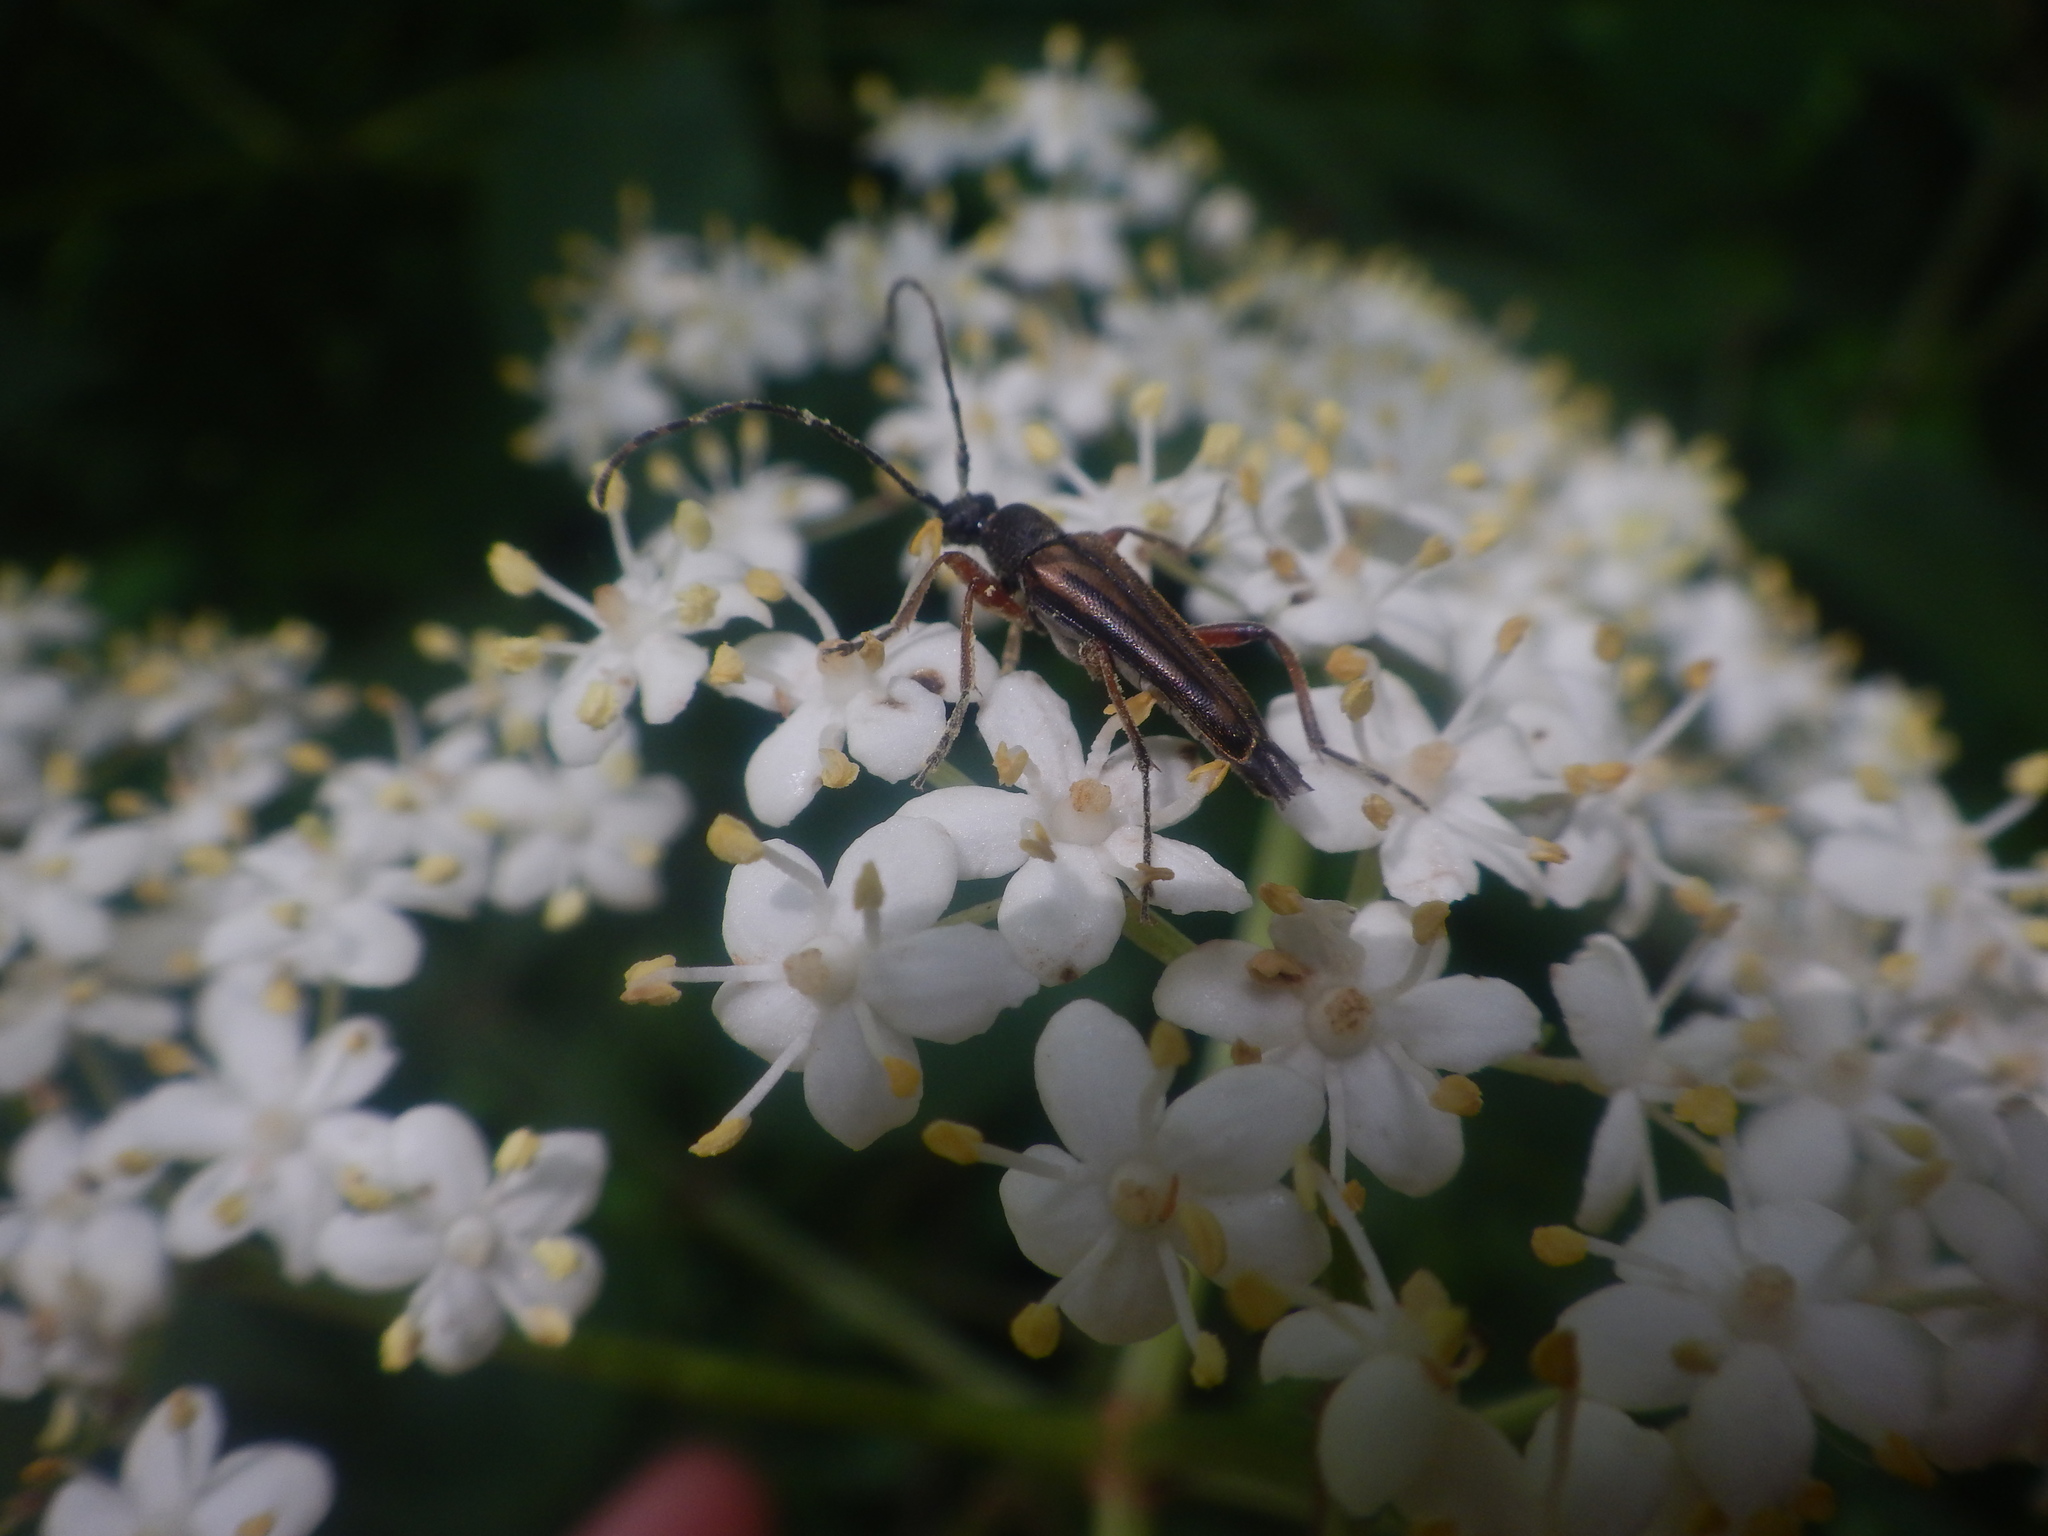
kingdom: Animalia
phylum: Arthropoda
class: Insecta
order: Coleoptera
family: Cerambycidae
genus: Analeptura
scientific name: Analeptura lineola
